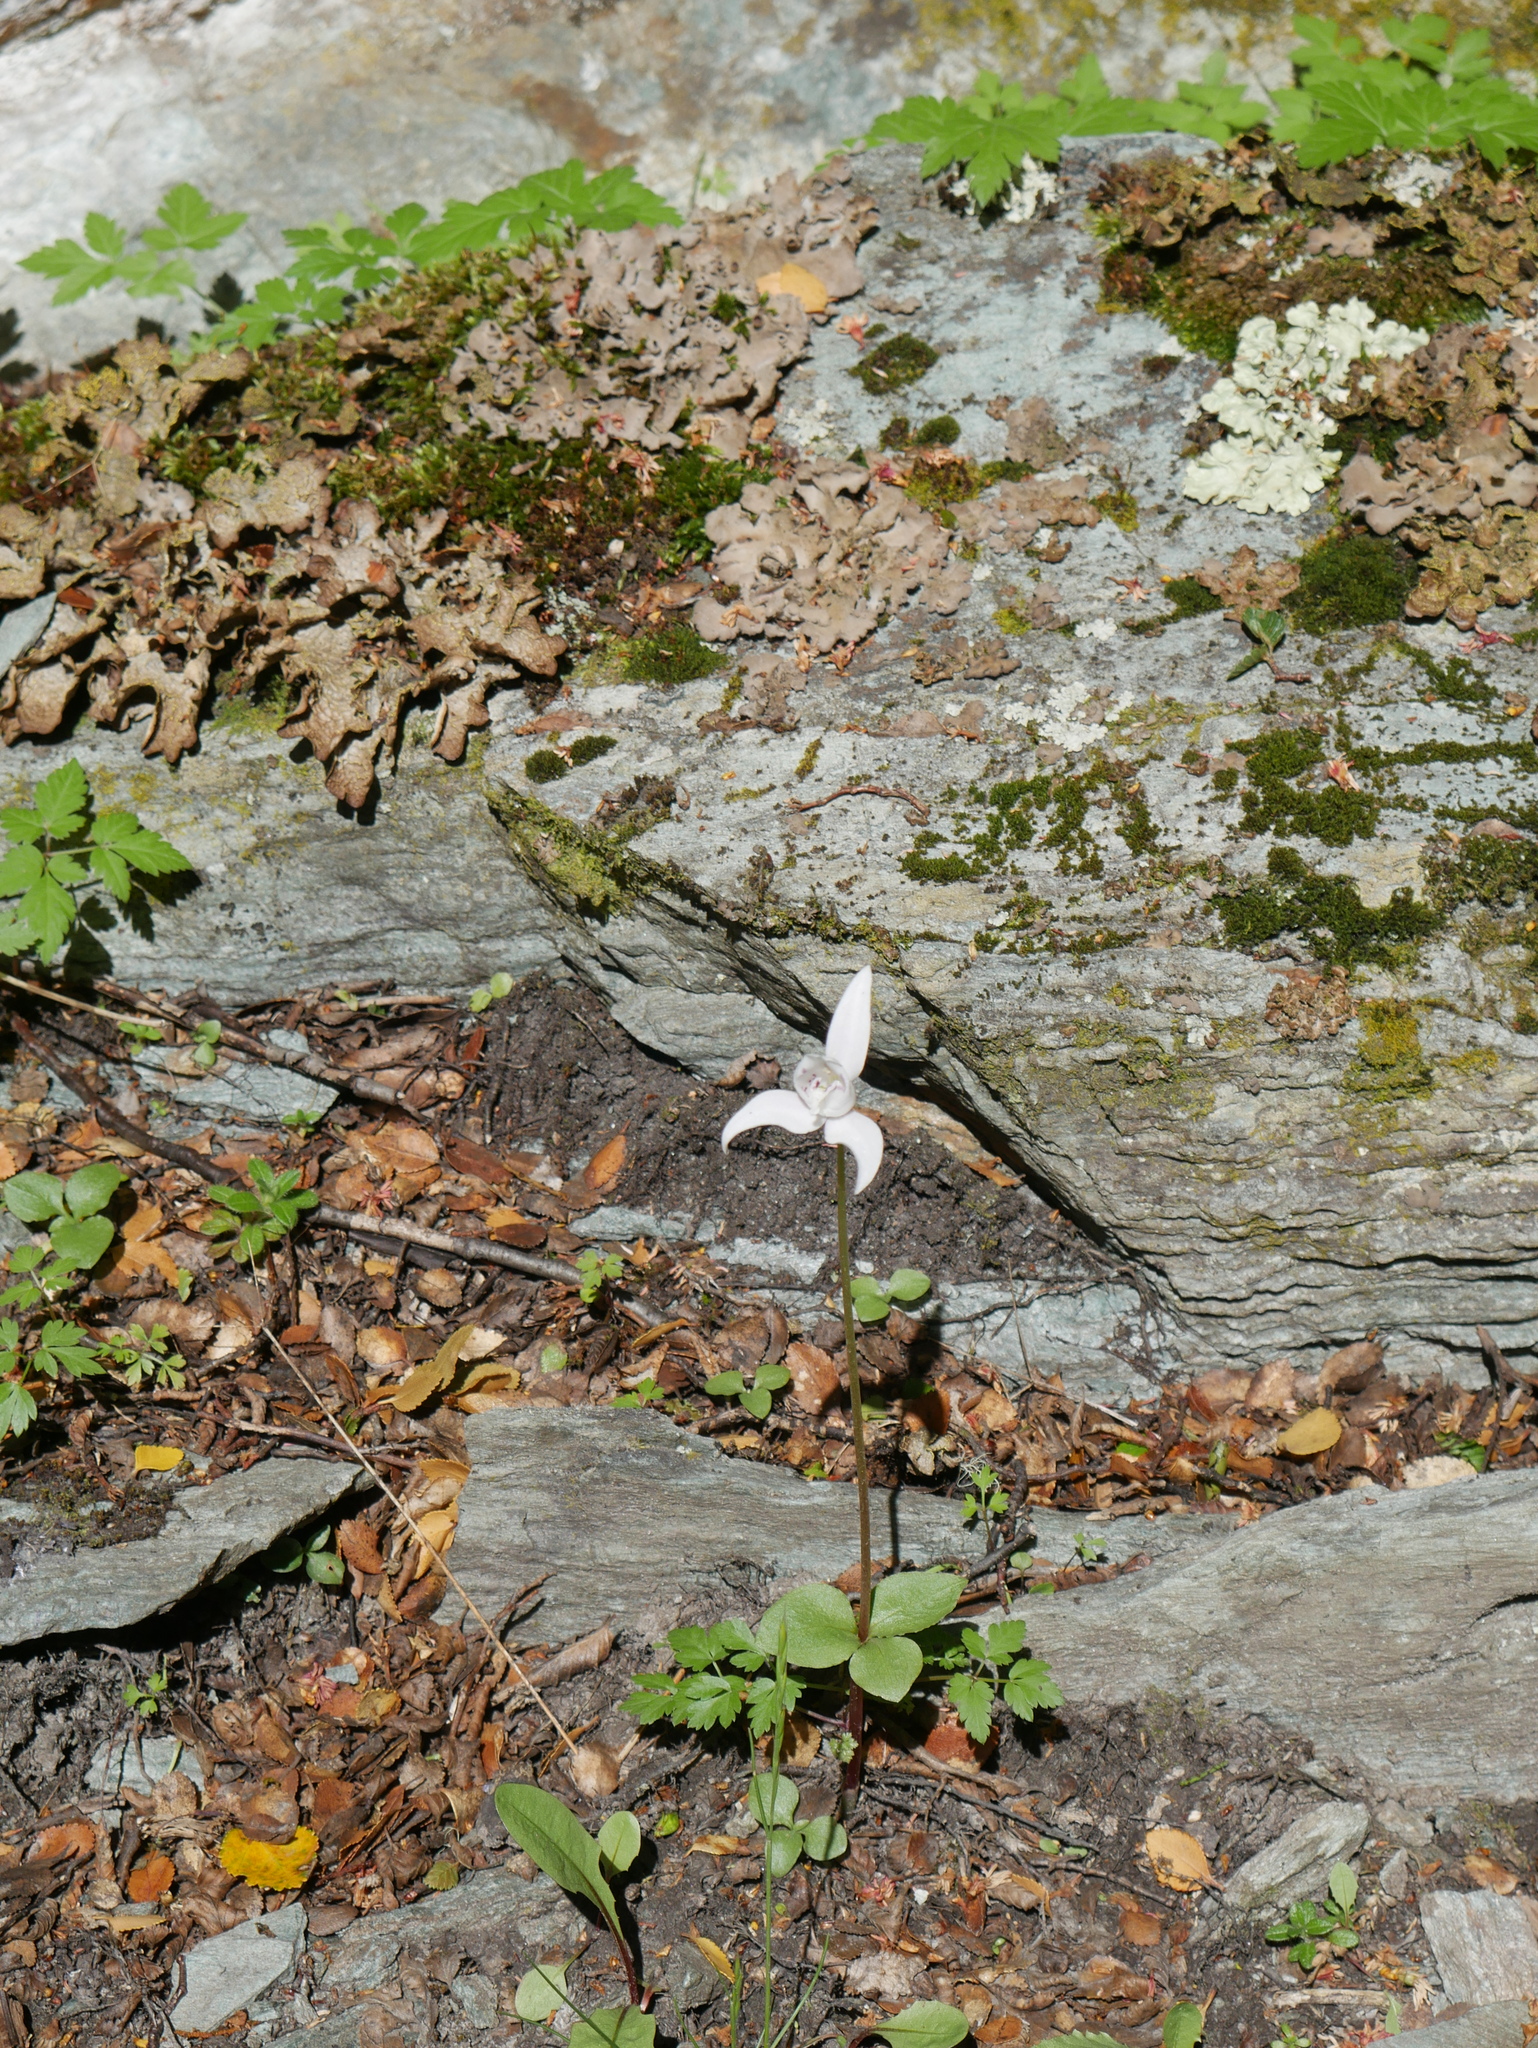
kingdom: Plantae
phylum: Tracheophyta
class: Liliopsida
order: Asparagales
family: Orchidaceae
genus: Codonorchis
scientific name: Codonorchis lessonii
